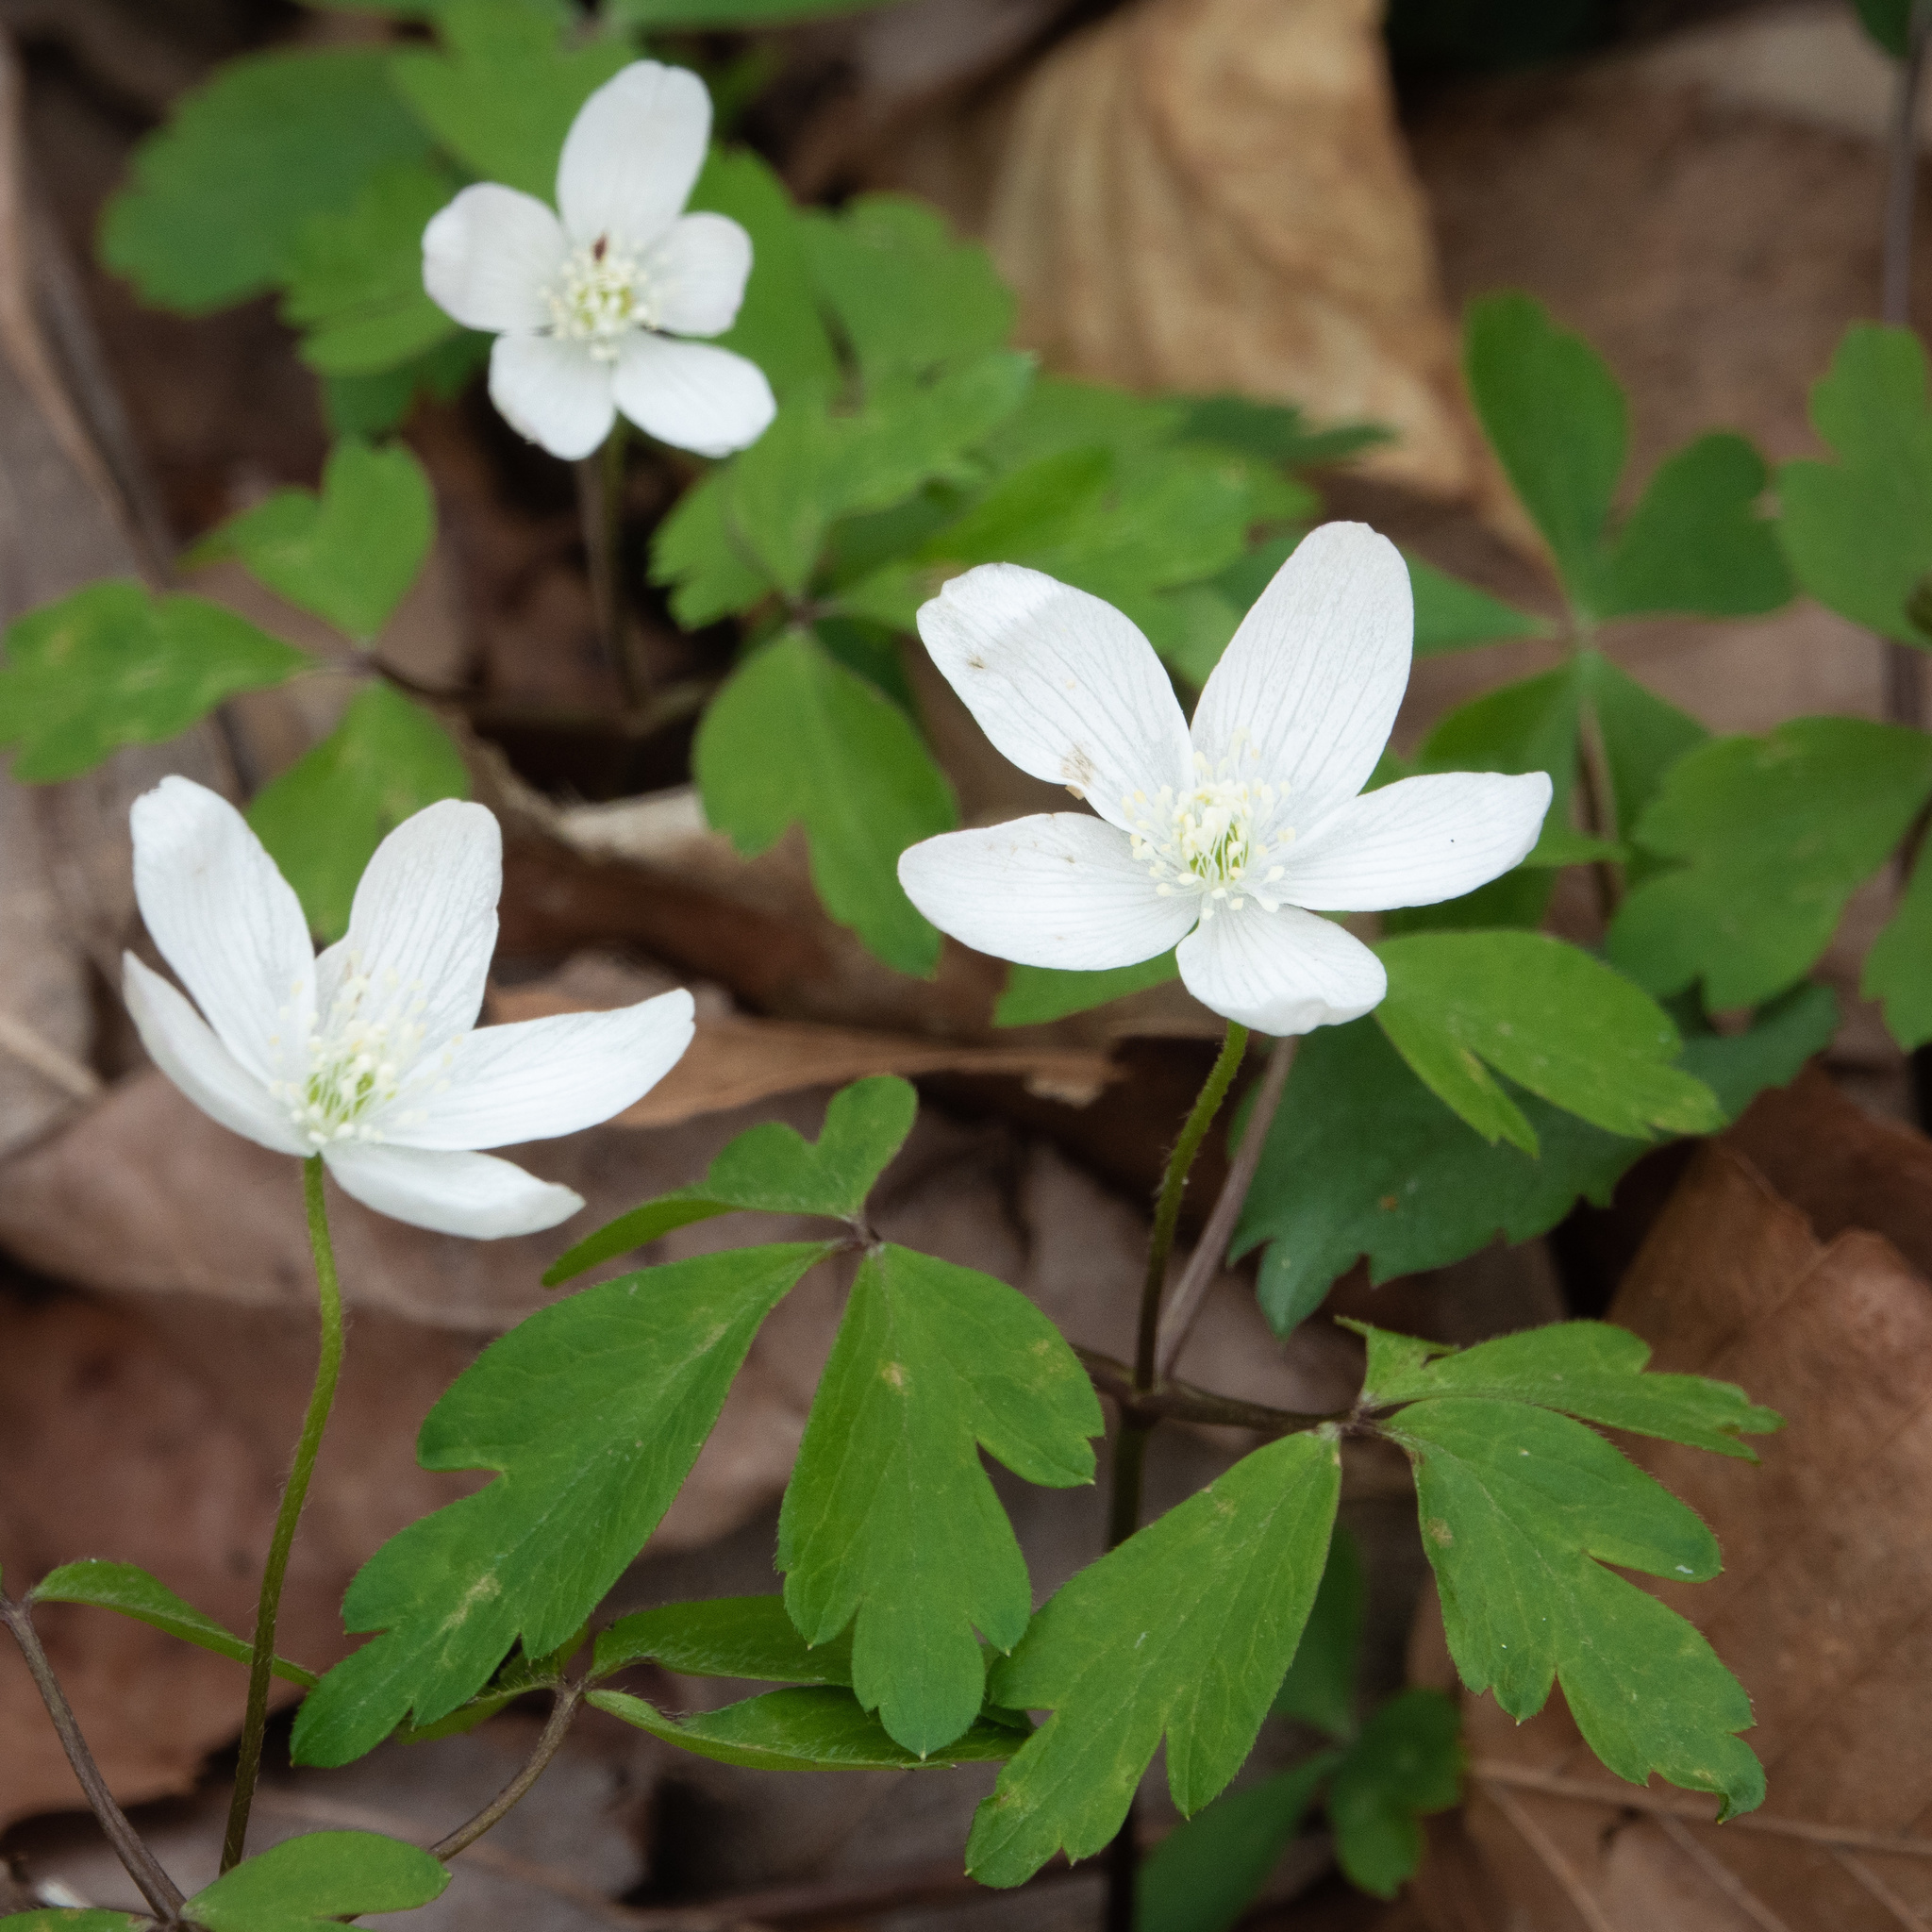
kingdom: Plantae
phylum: Tracheophyta
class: Magnoliopsida
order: Ranunculales
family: Ranunculaceae
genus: Anemone
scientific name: Anemone quinquefolia
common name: Wood anemone
